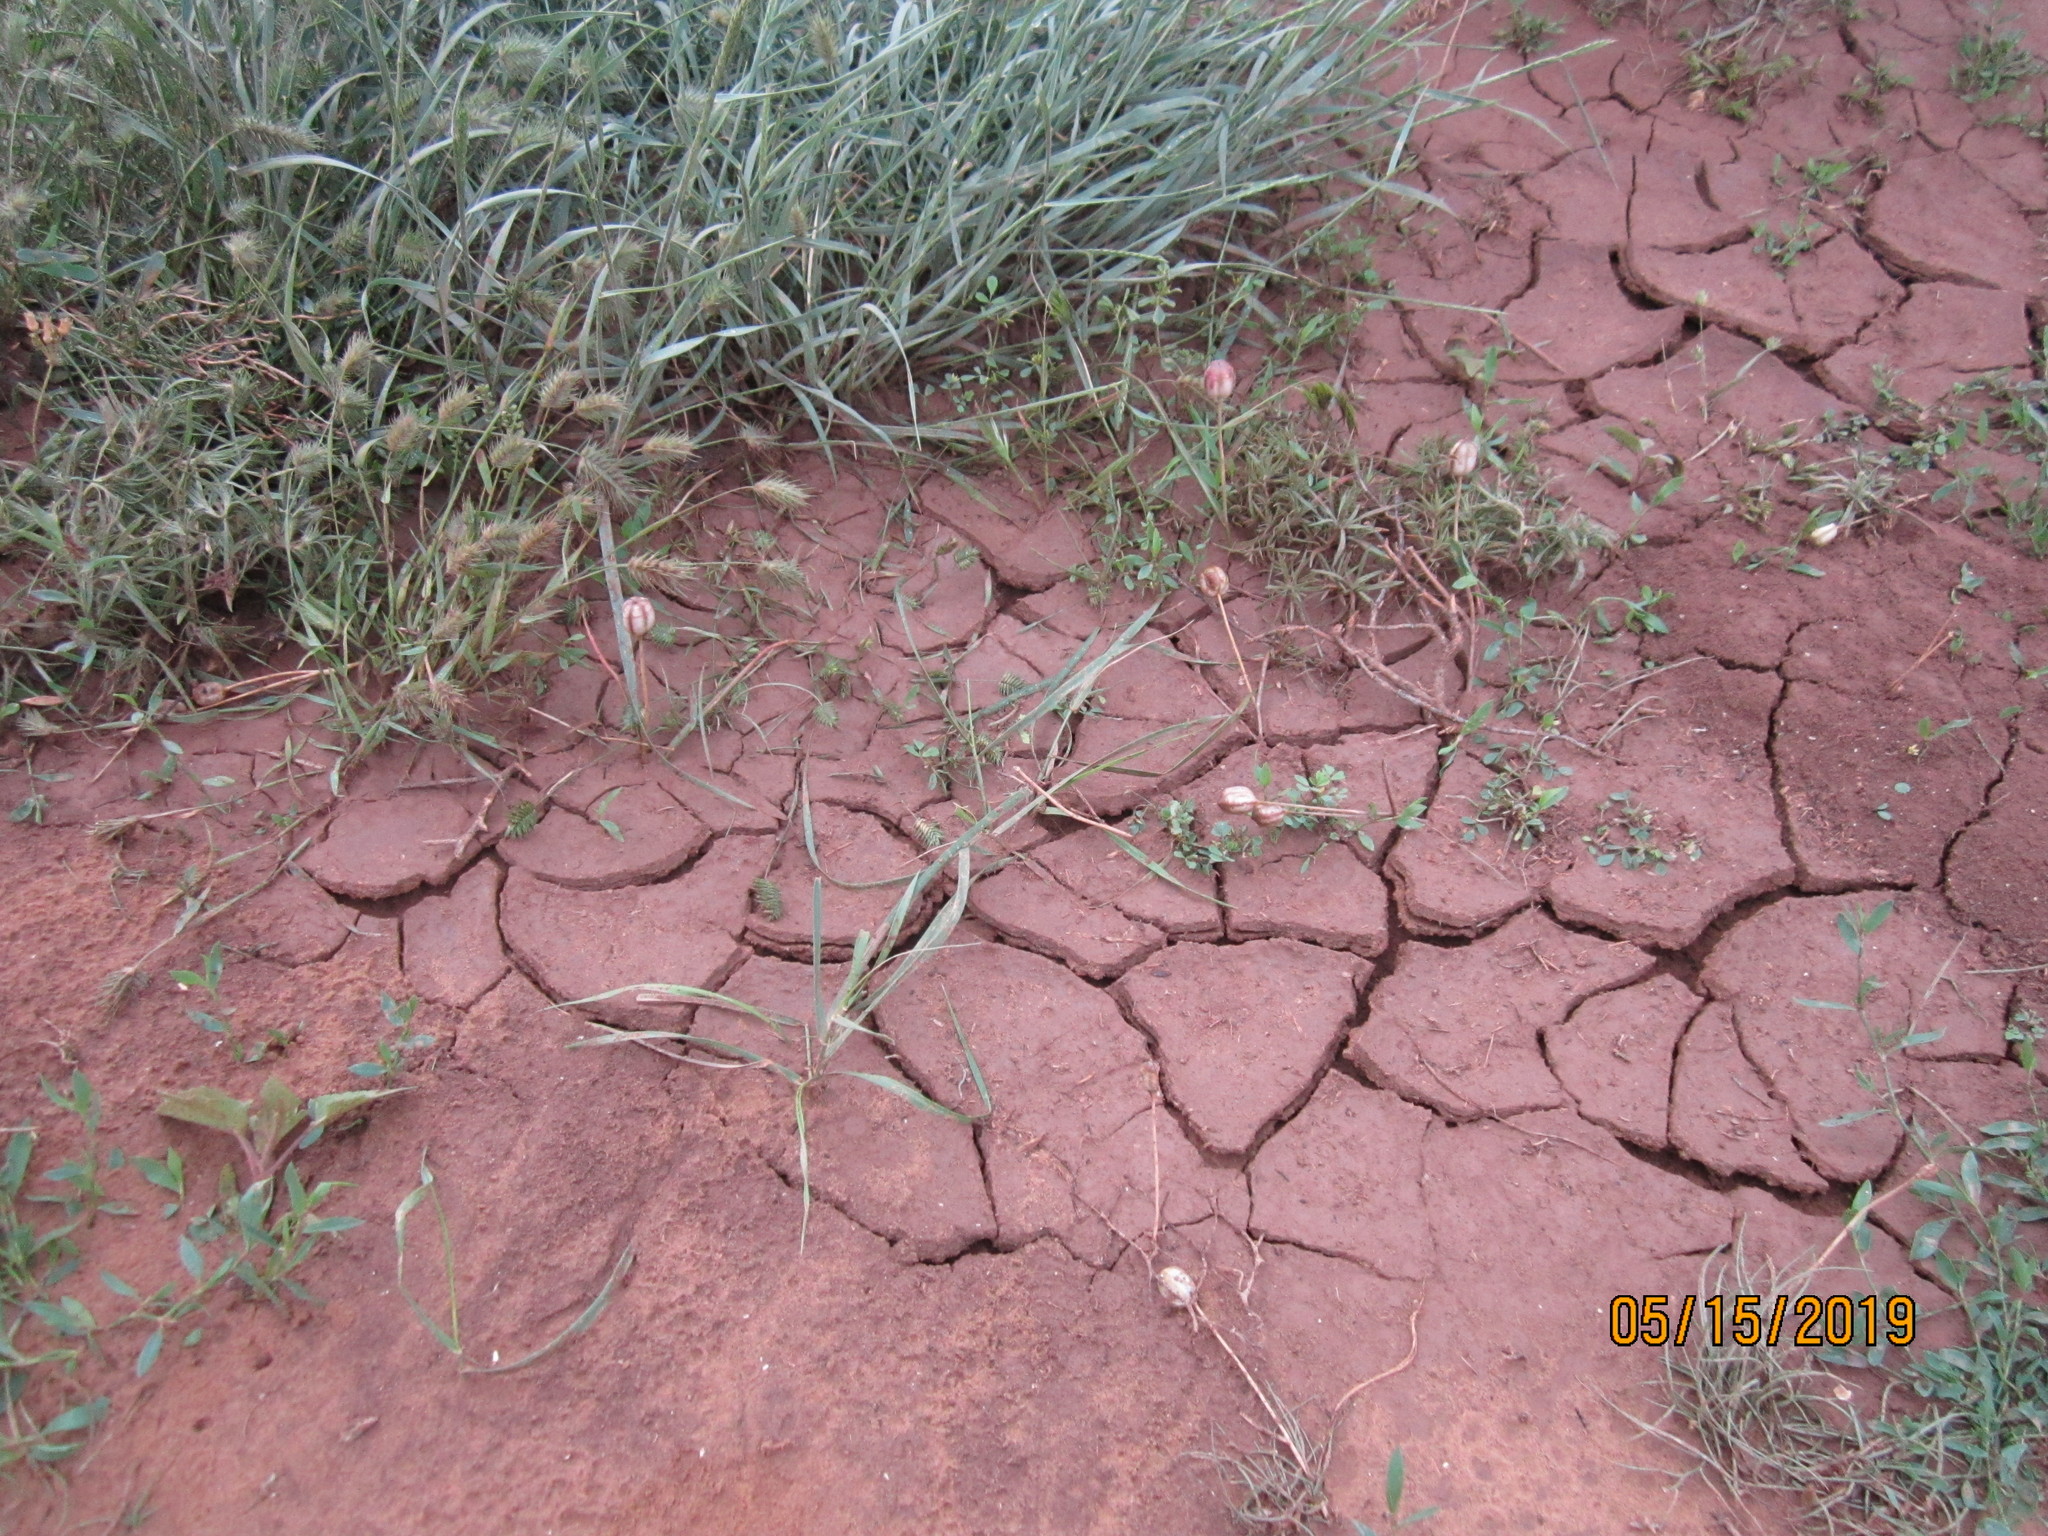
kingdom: Plantae
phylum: Tracheophyta
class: Liliopsida
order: Liliales
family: Liliaceae
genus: Tulipa
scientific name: Tulipa biflora
